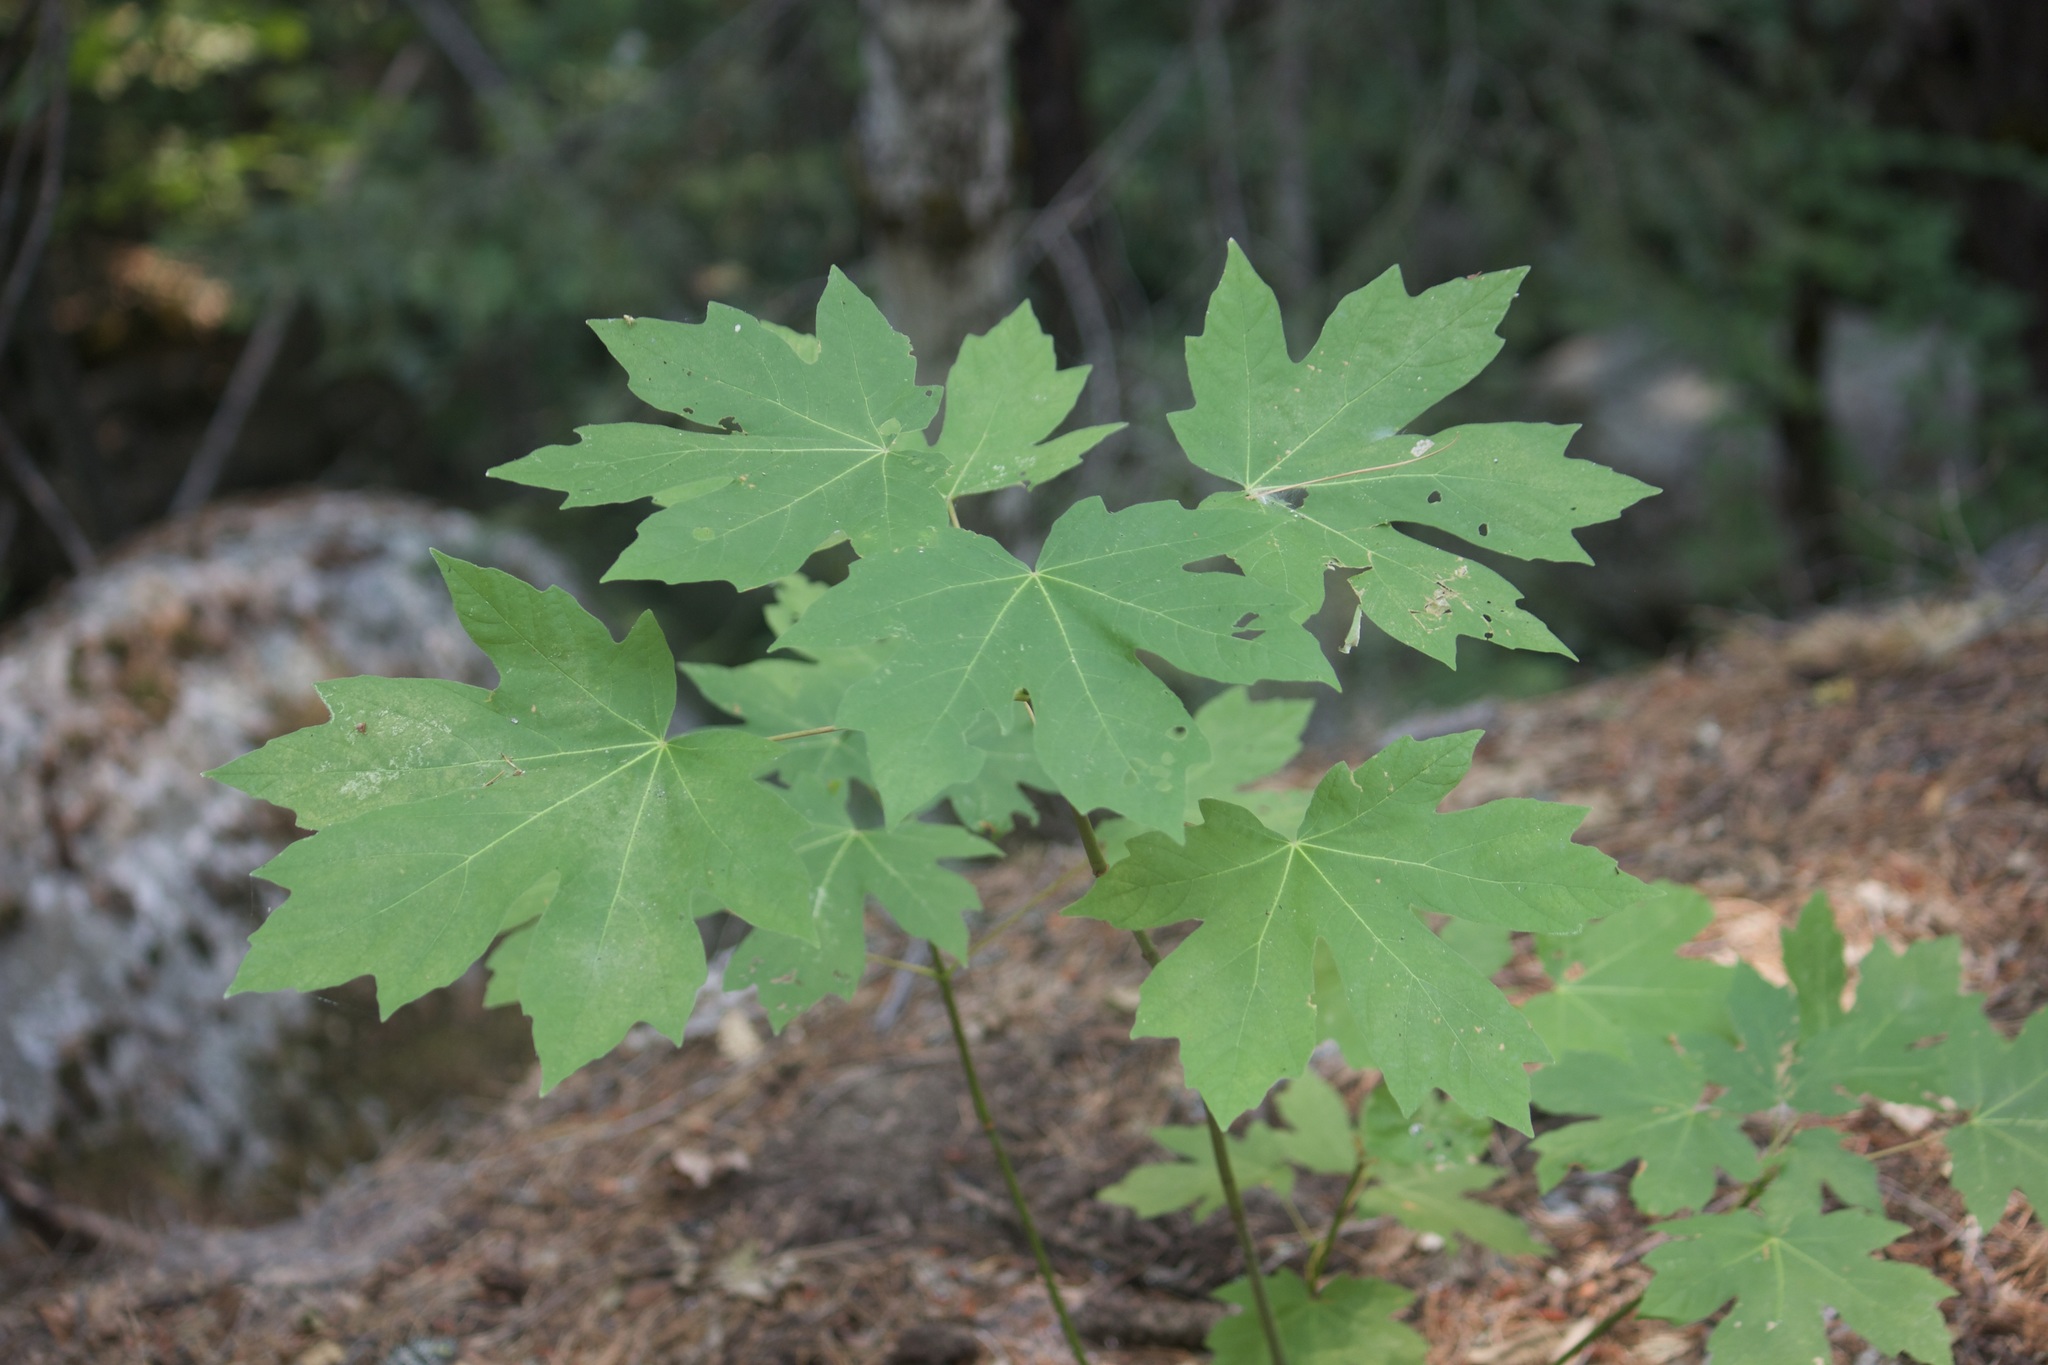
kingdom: Plantae
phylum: Tracheophyta
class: Magnoliopsida
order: Sapindales
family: Sapindaceae
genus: Acer
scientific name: Acer macrophyllum
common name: Oregon maple
